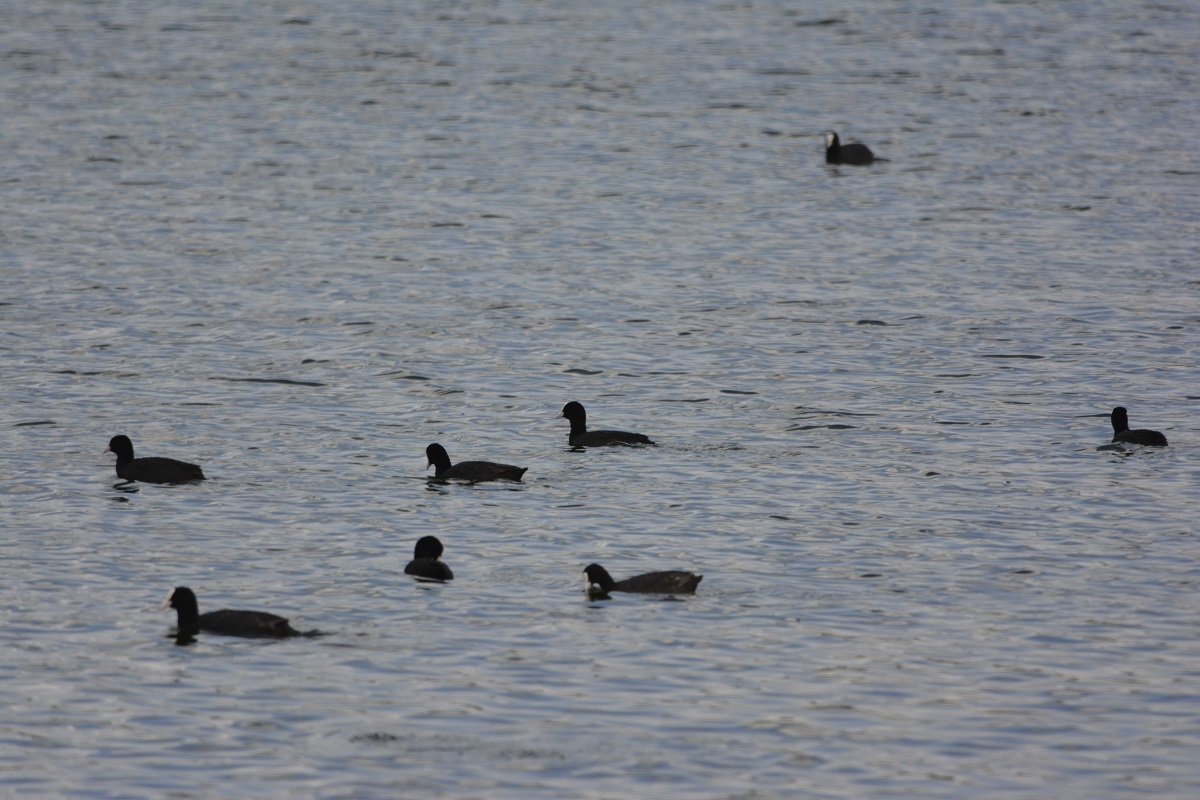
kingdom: Animalia
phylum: Chordata
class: Aves
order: Gruiformes
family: Rallidae
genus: Fulica
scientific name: Fulica atra
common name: Eurasian coot
